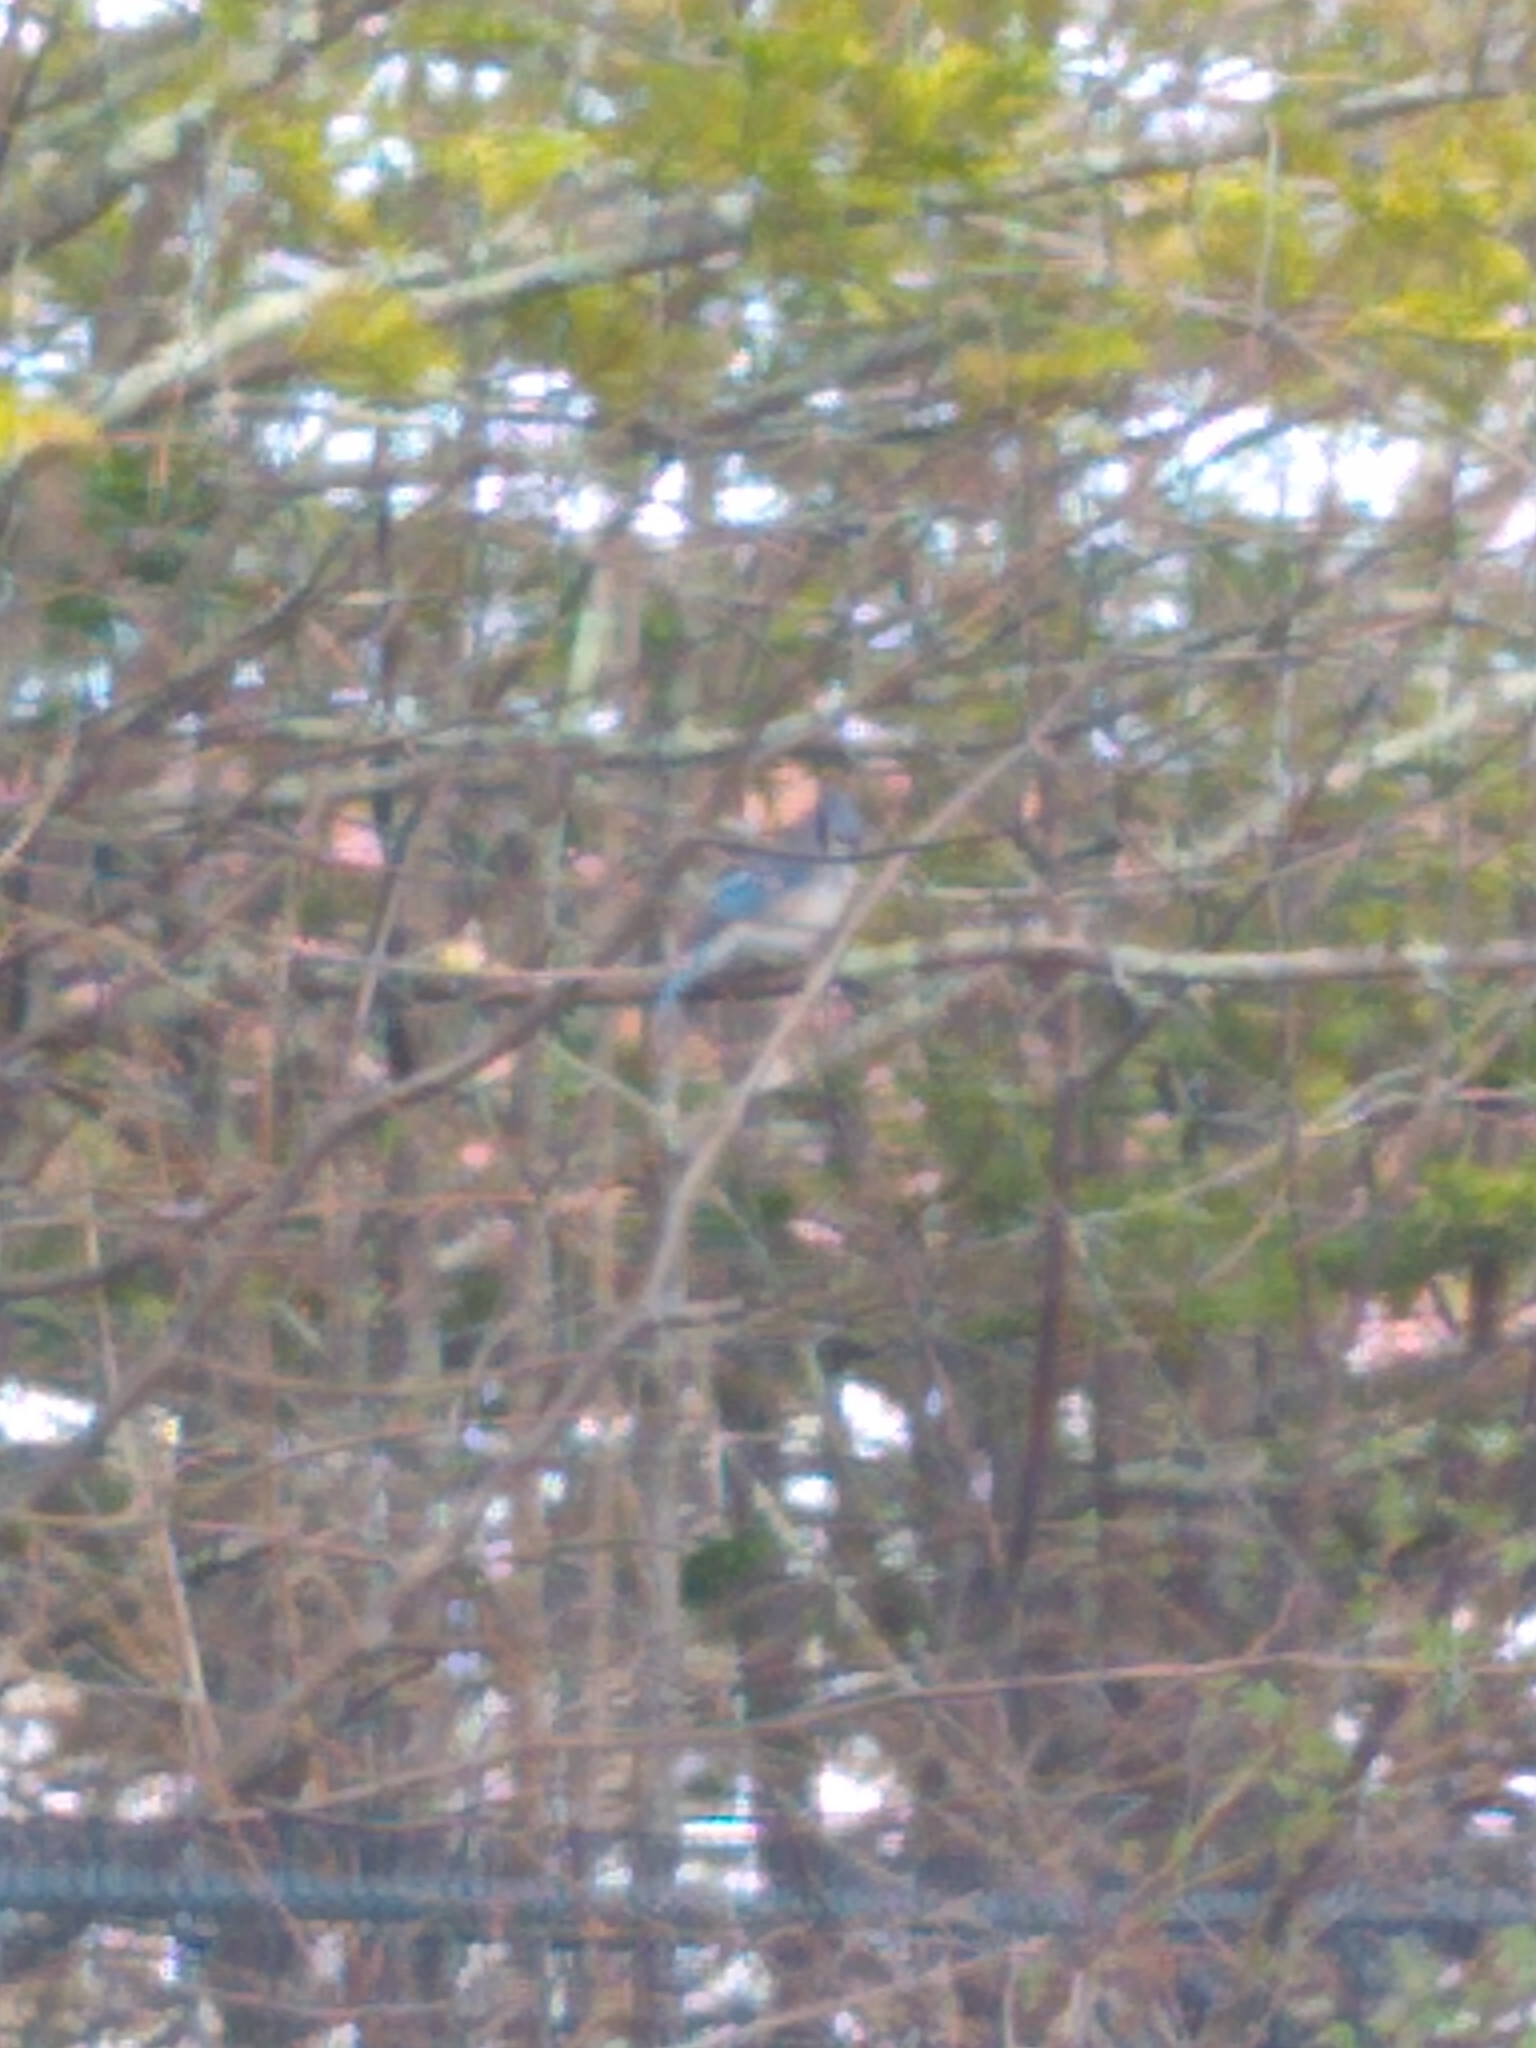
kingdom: Animalia
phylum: Chordata
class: Aves
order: Passeriformes
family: Corvidae
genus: Cyanocitta
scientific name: Cyanocitta cristata
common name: Blue jay
